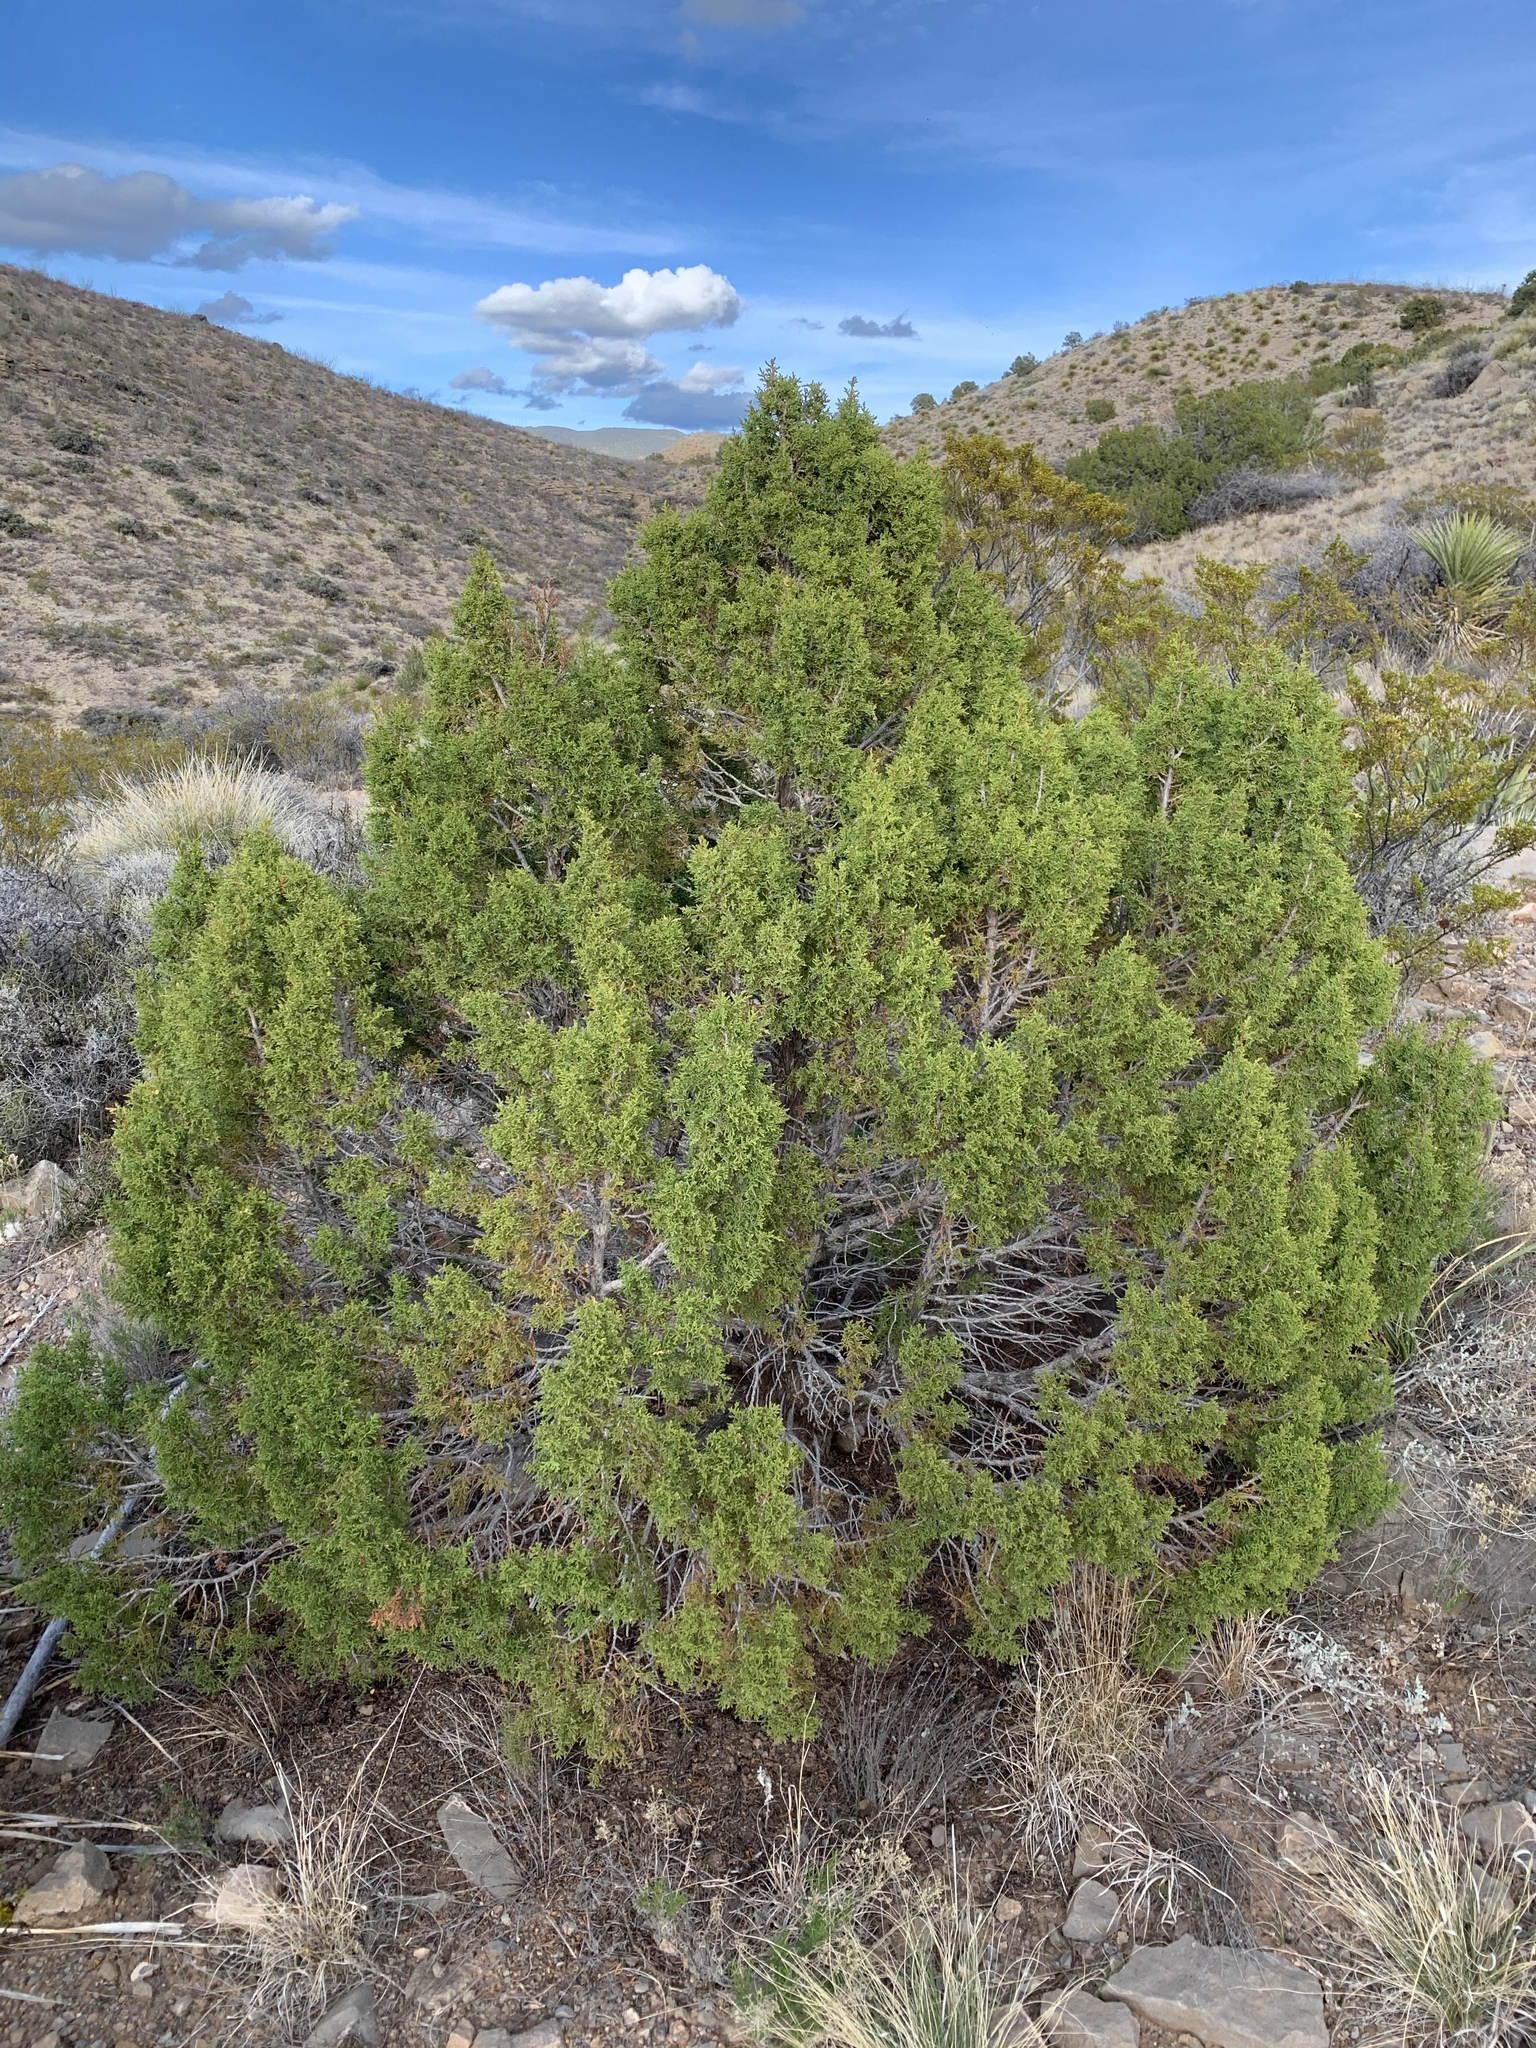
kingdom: Plantae
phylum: Tracheophyta
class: Pinopsida
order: Pinales
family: Cupressaceae
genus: Juniperus
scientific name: Juniperus monosperma
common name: One-seed juniper
